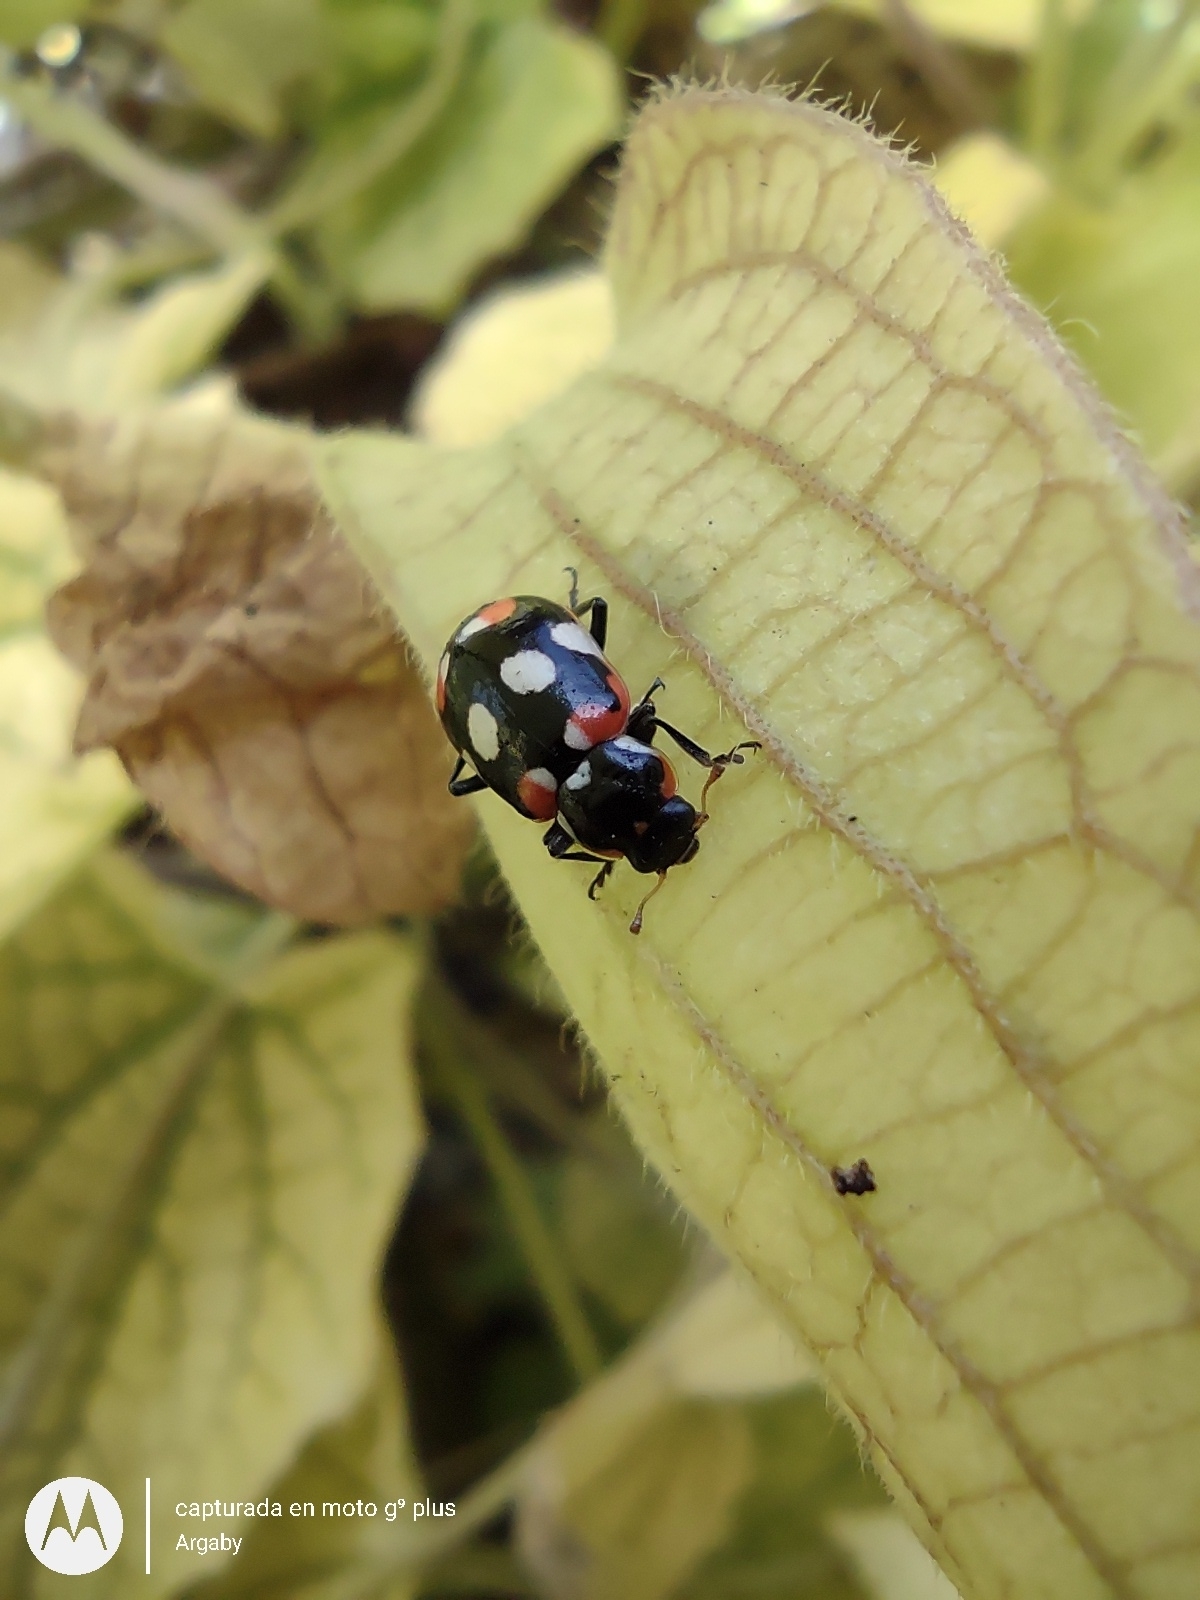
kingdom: Animalia
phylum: Arthropoda
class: Insecta
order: Coleoptera
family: Coccinellidae
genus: Eriopis
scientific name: Eriopis connexa
